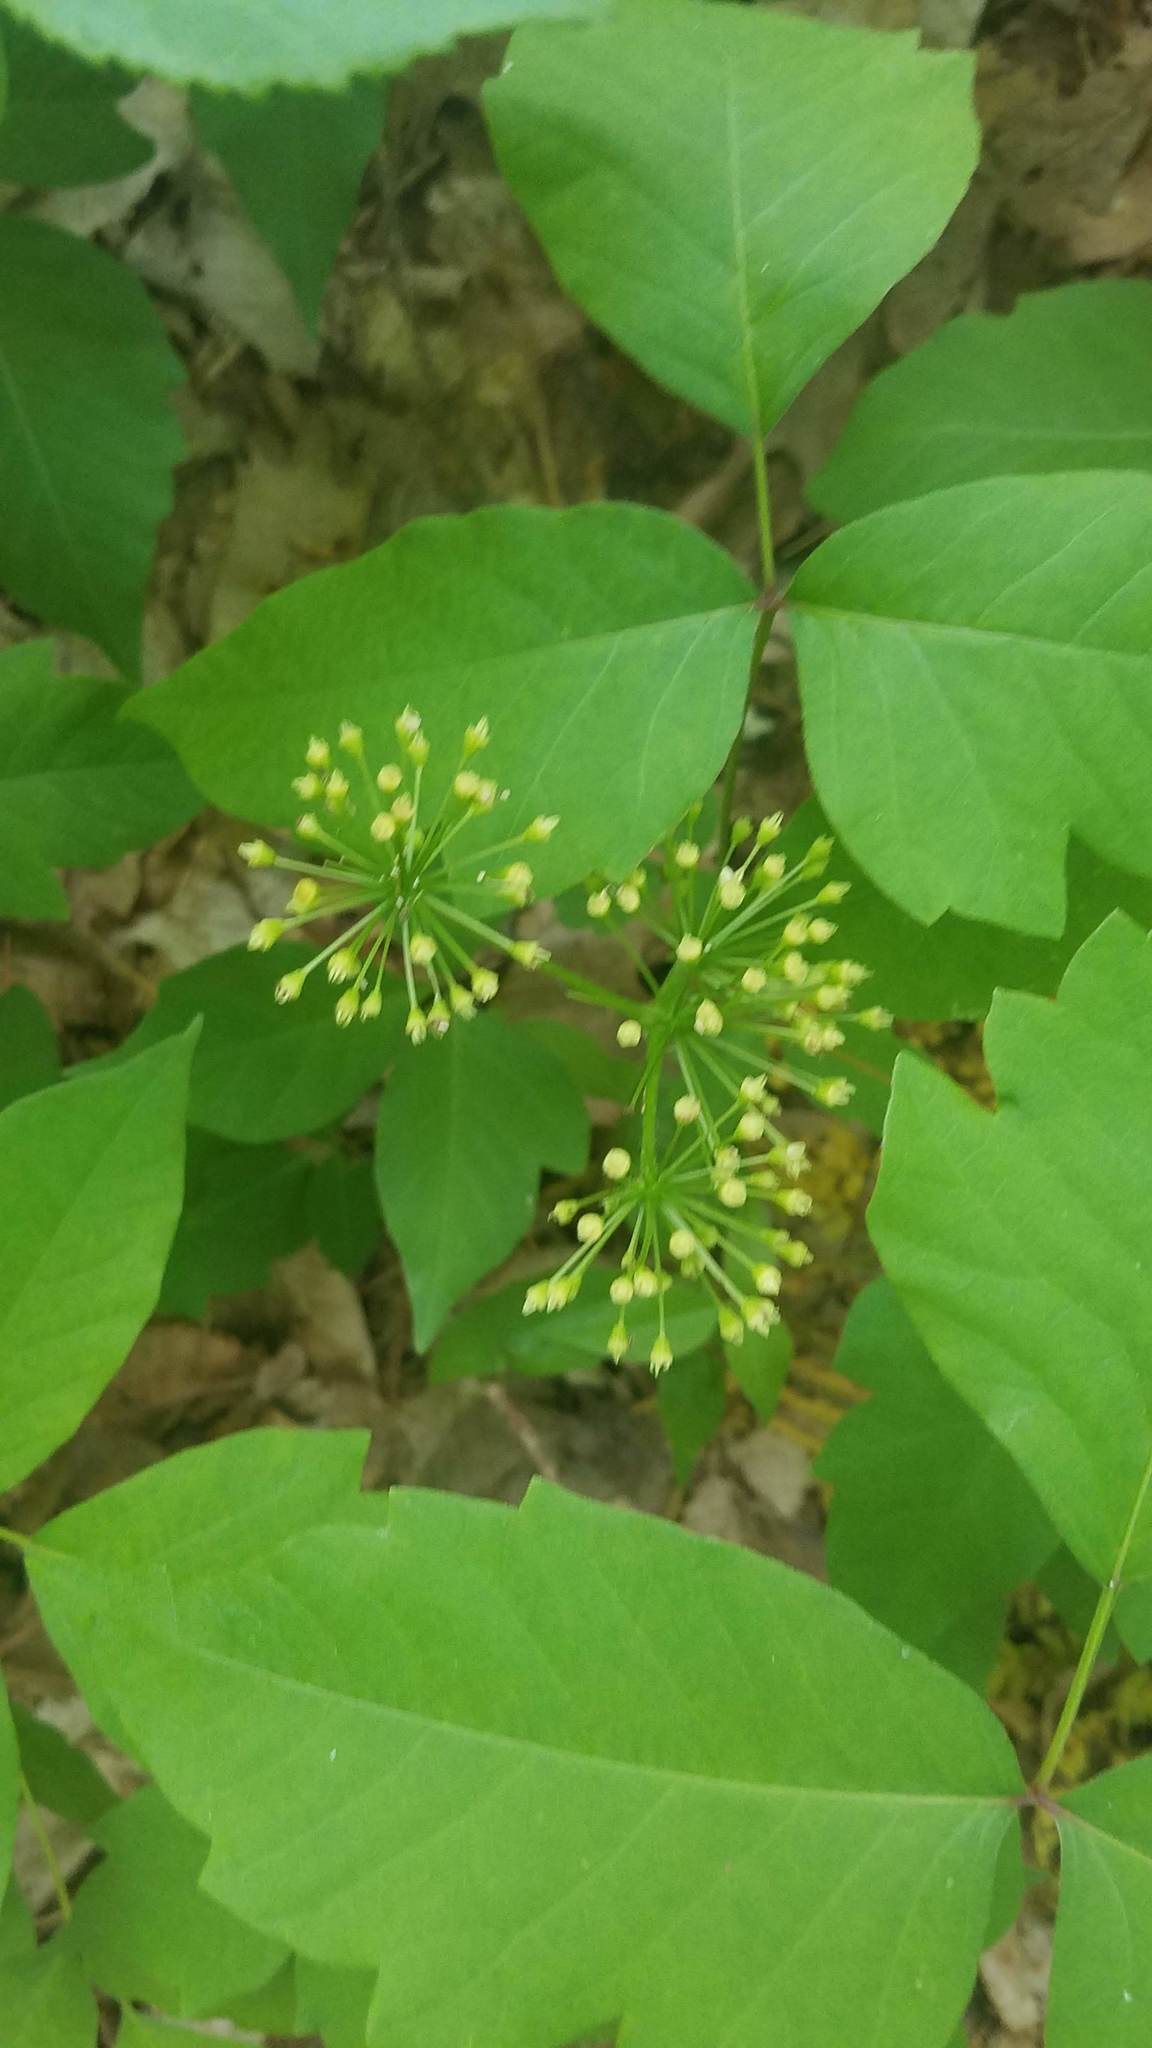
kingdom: Plantae
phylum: Tracheophyta
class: Magnoliopsida
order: Apiales
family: Araliaceae
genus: Aralia
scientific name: Aralia nudicaulis
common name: Wild sarsaparilla
